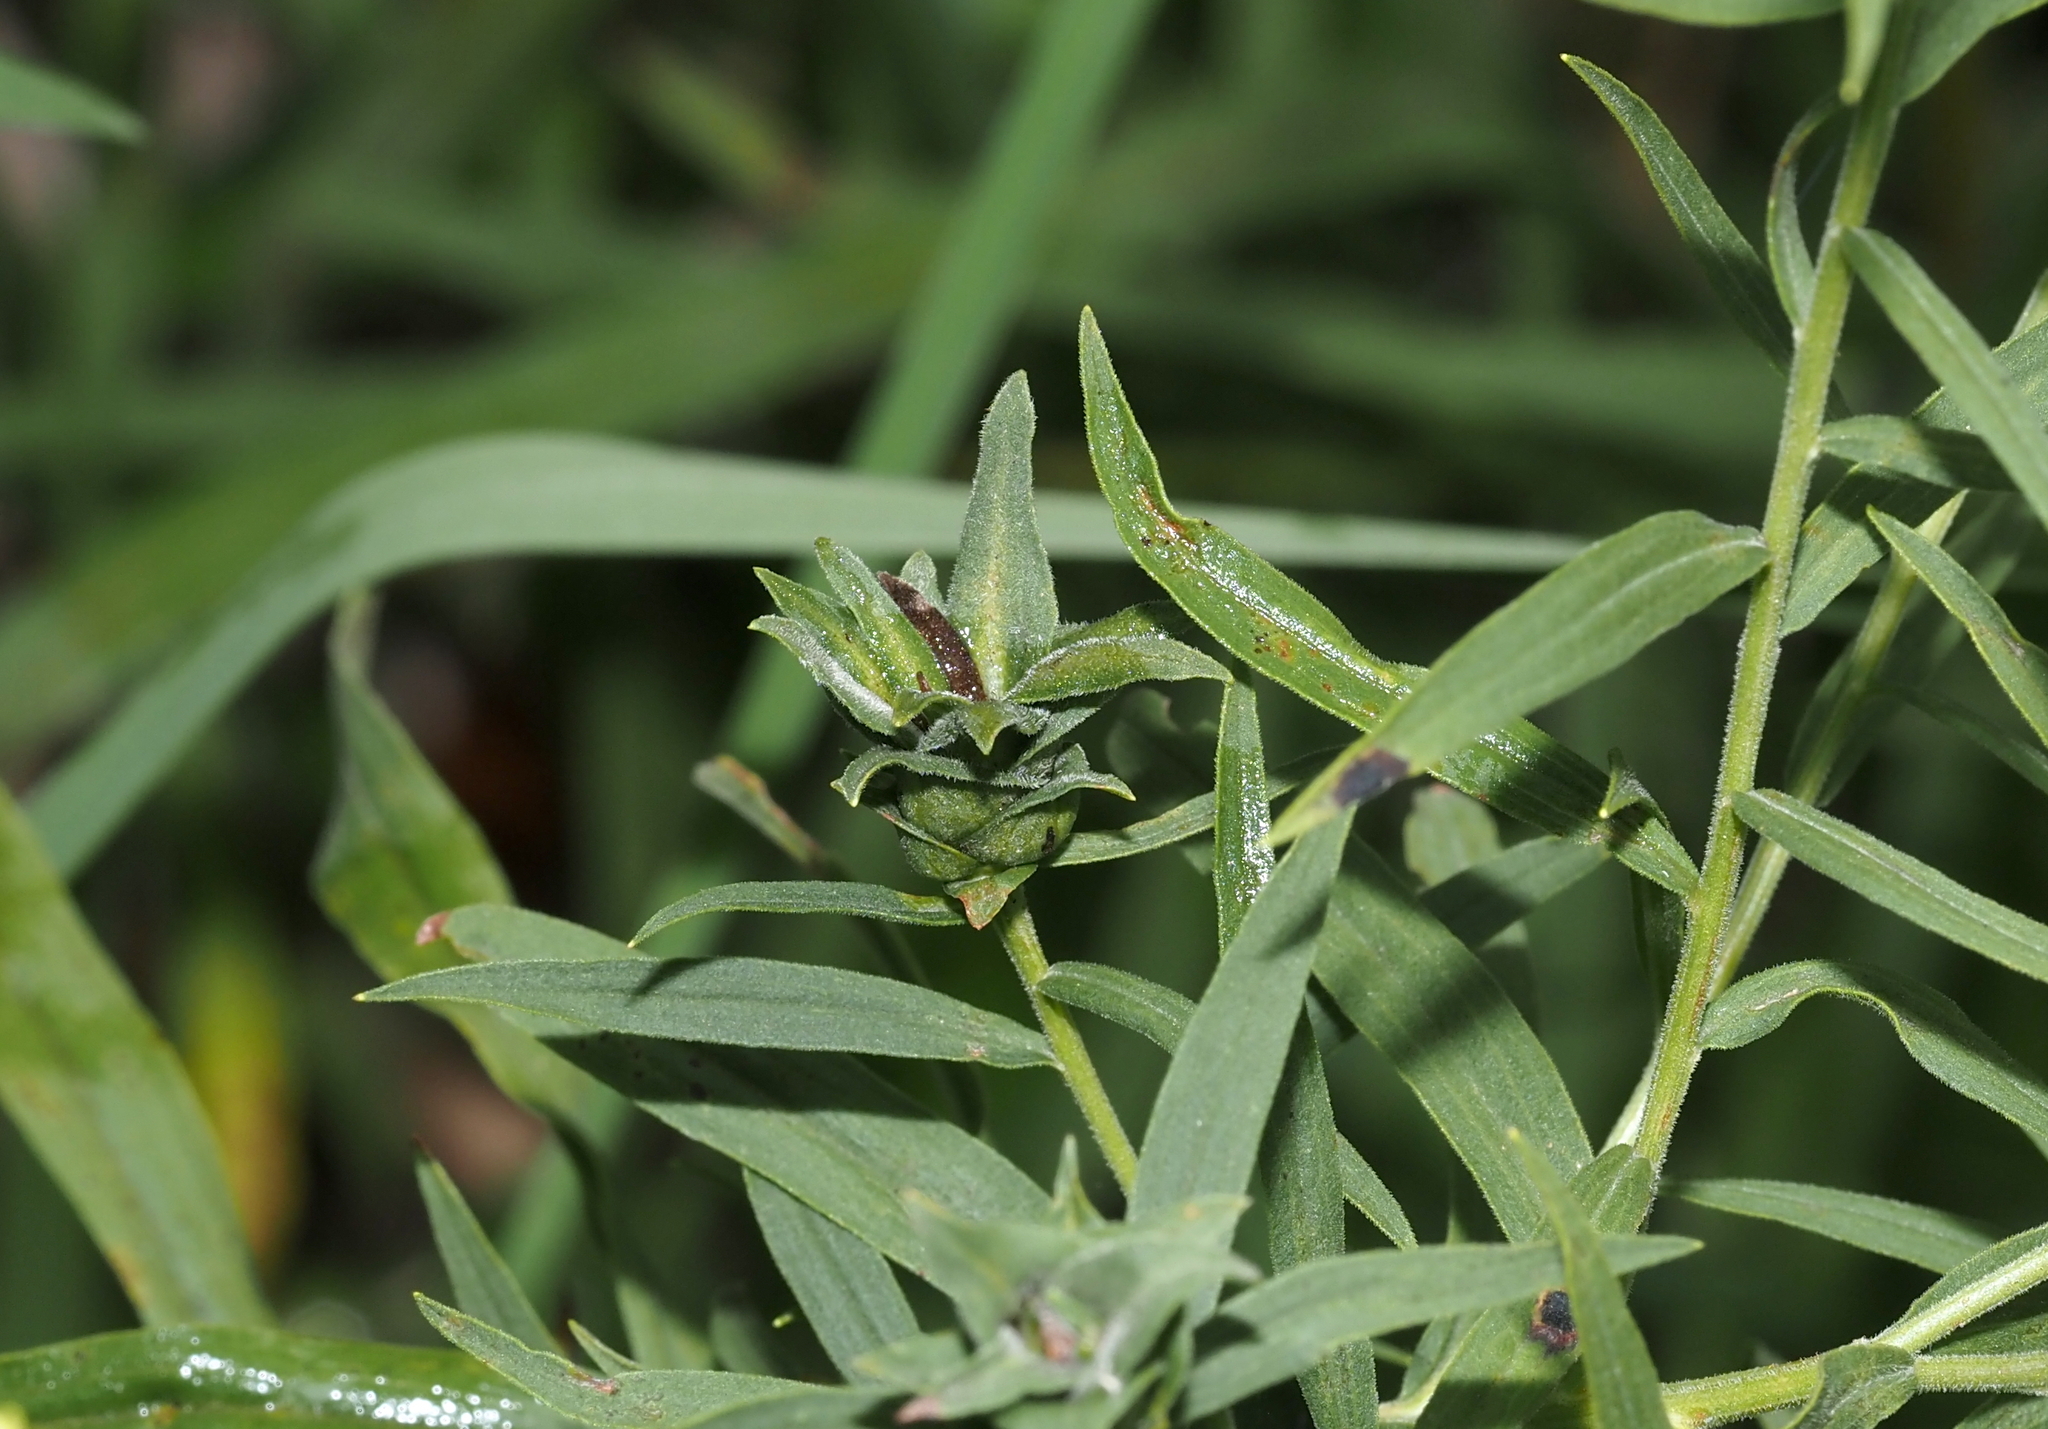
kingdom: Animalia
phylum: Arthropoda
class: Insecta
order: Diptera
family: Cecidomyiidae
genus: Asphondylia
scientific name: Asphondylia pseudorosa
